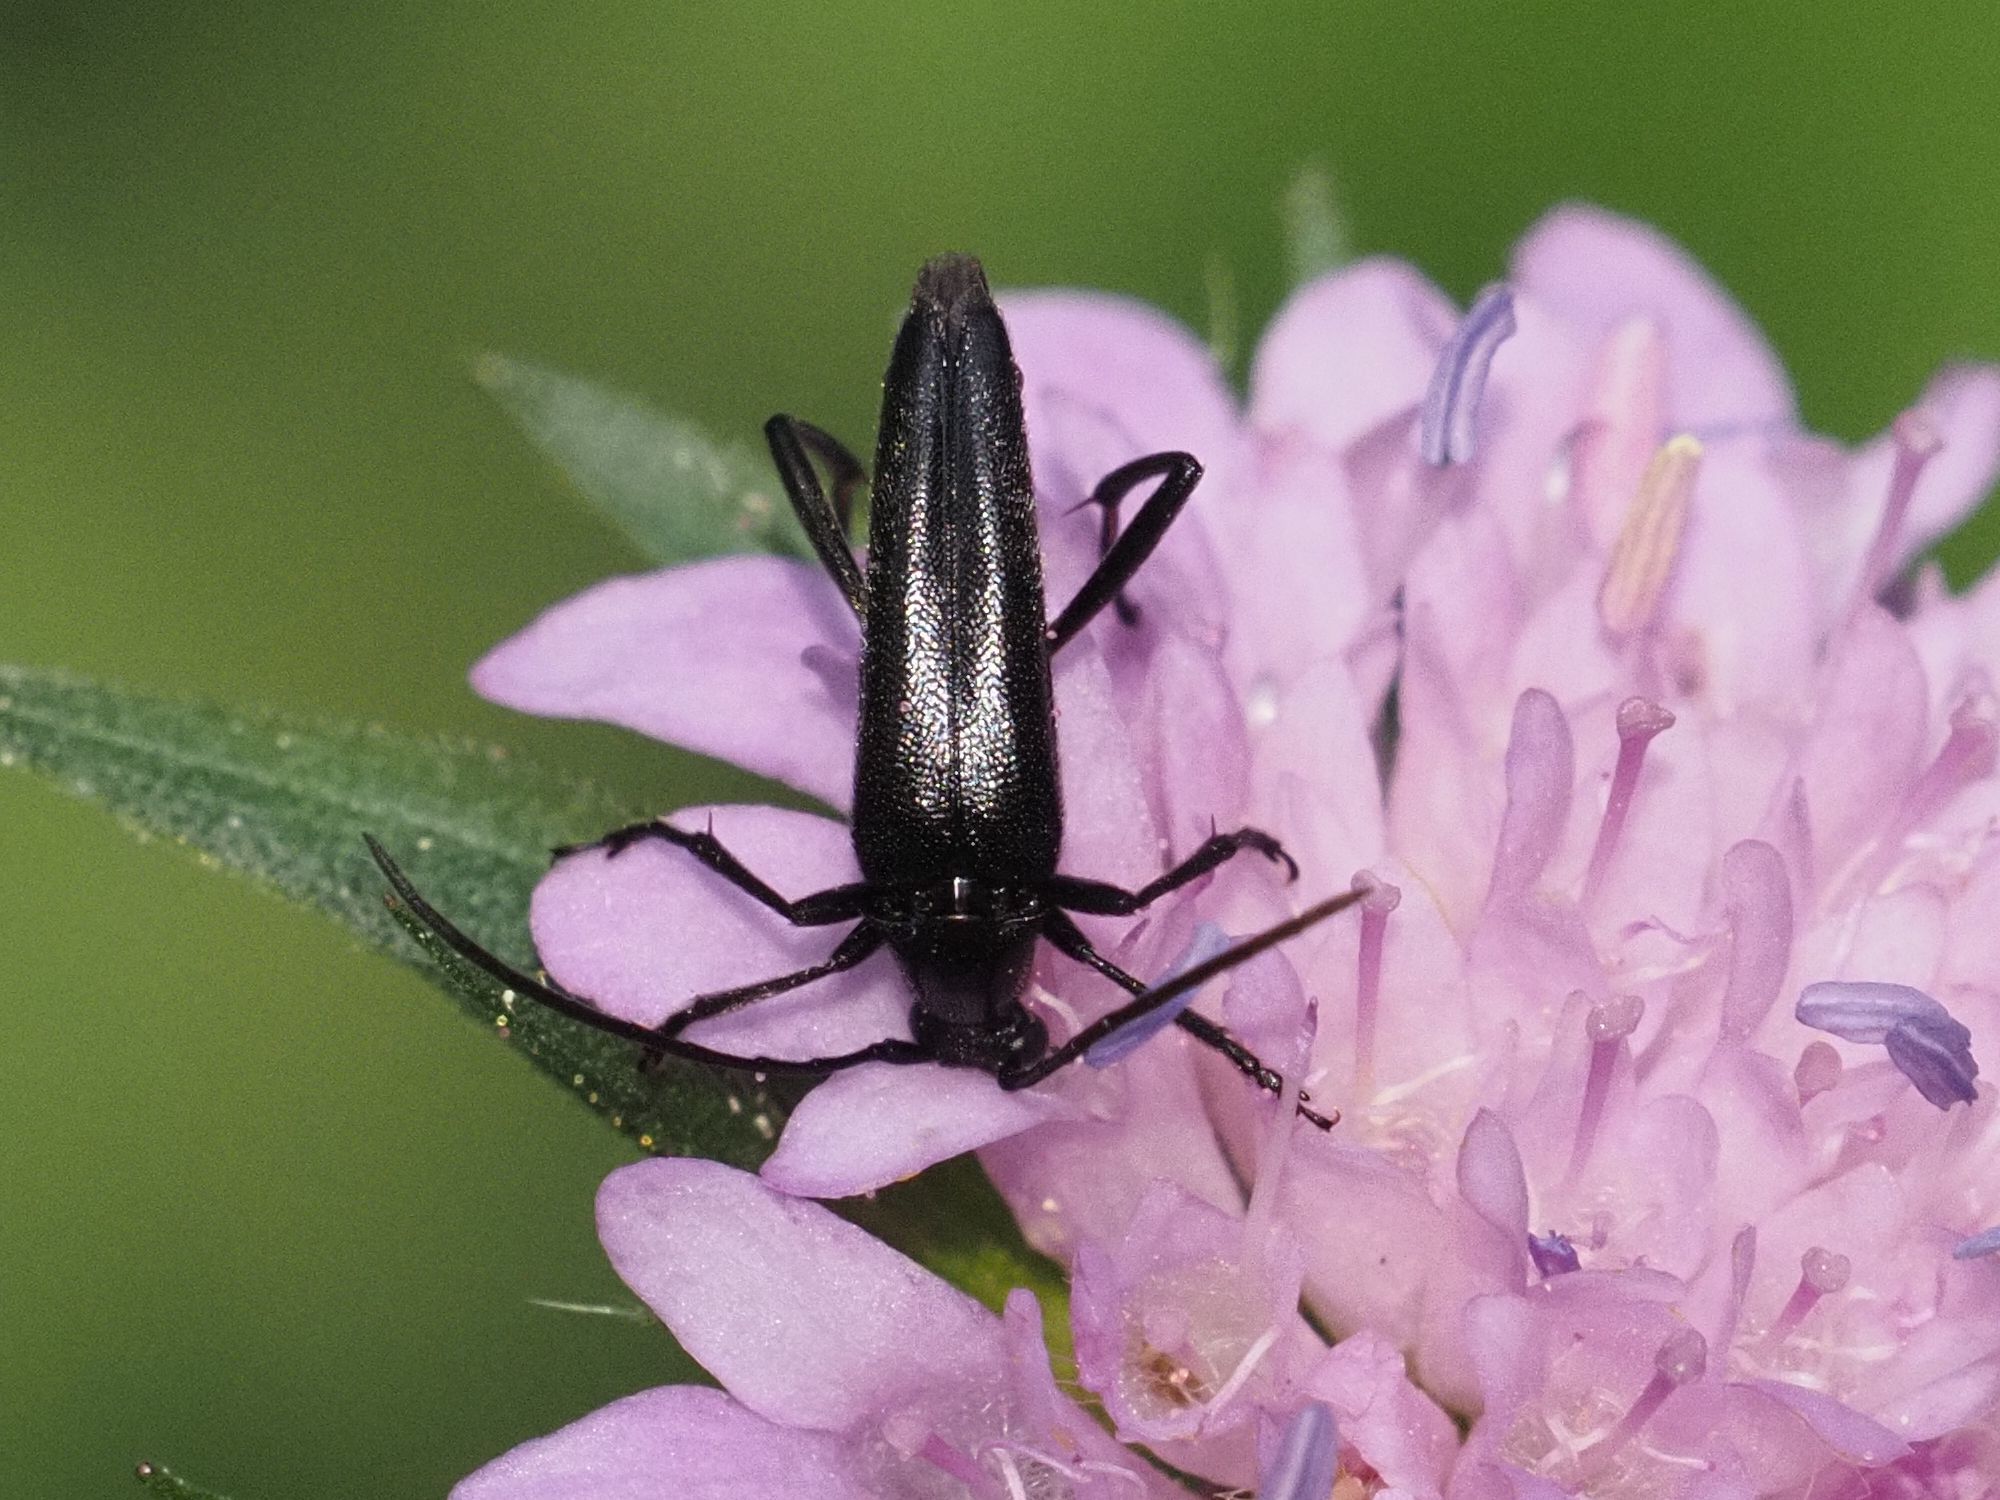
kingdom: Animalia
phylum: Arthropoda
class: Insecta
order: Coleoptera
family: Cerambycidae
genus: Stenurella
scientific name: Stenurella nigra
